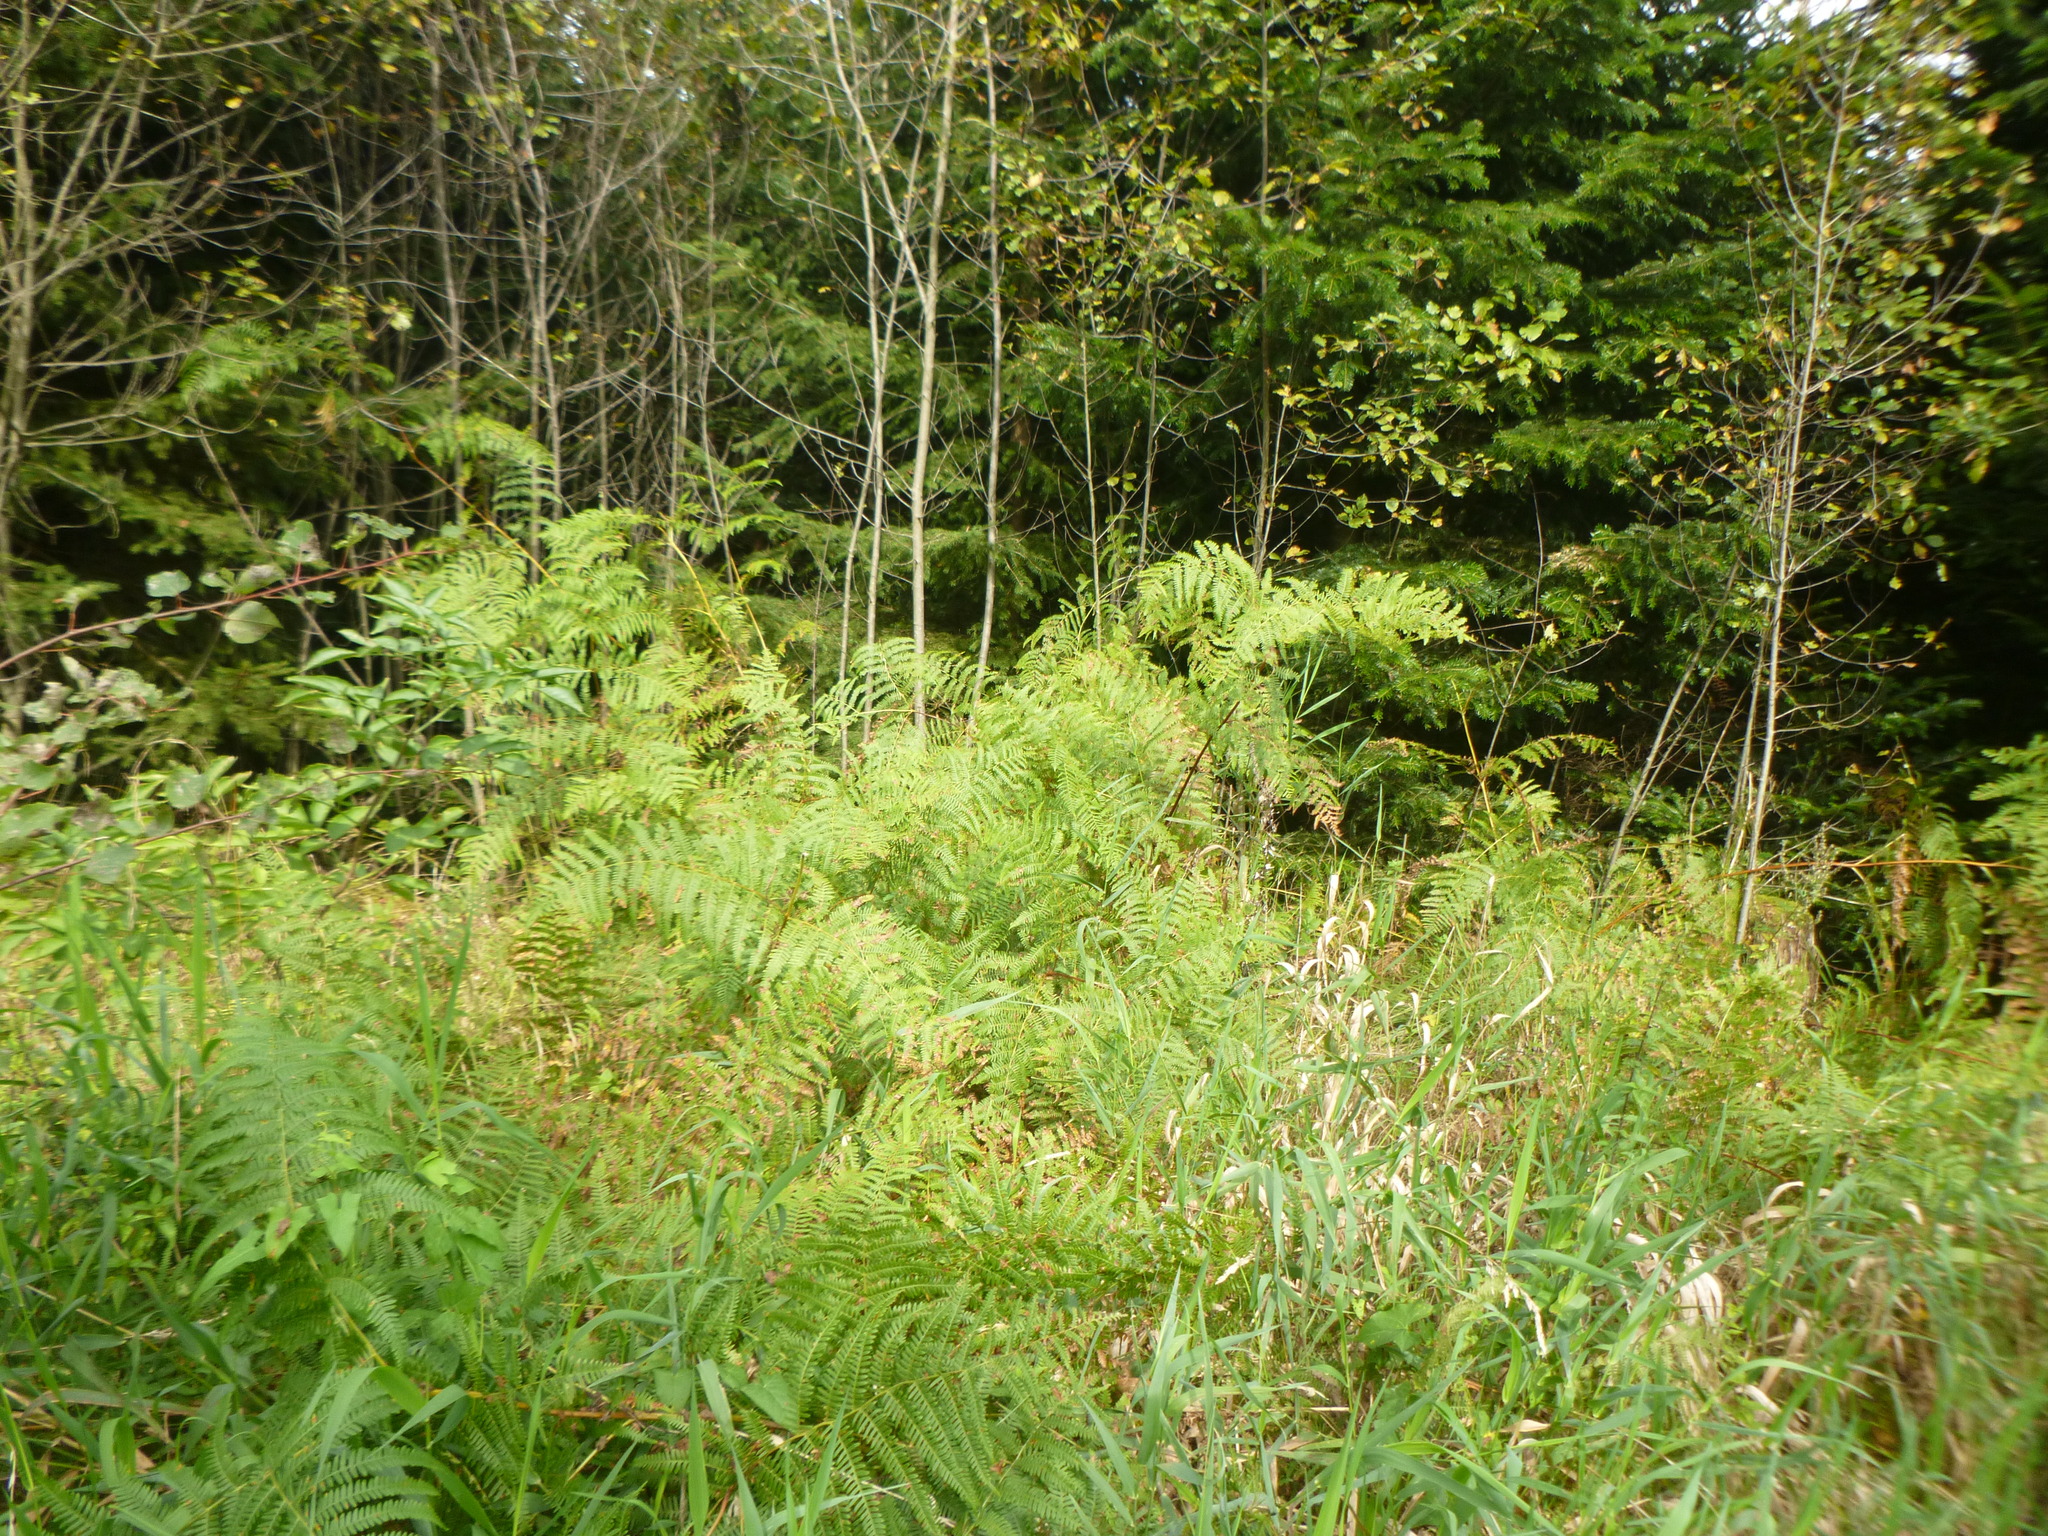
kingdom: Plantae
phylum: Tracheophyta
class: Polypodiopsida
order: Polypodiales
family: Dennstaedtiaceae
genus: Pteridium
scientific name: Pteridium aquilinum
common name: Bracken
